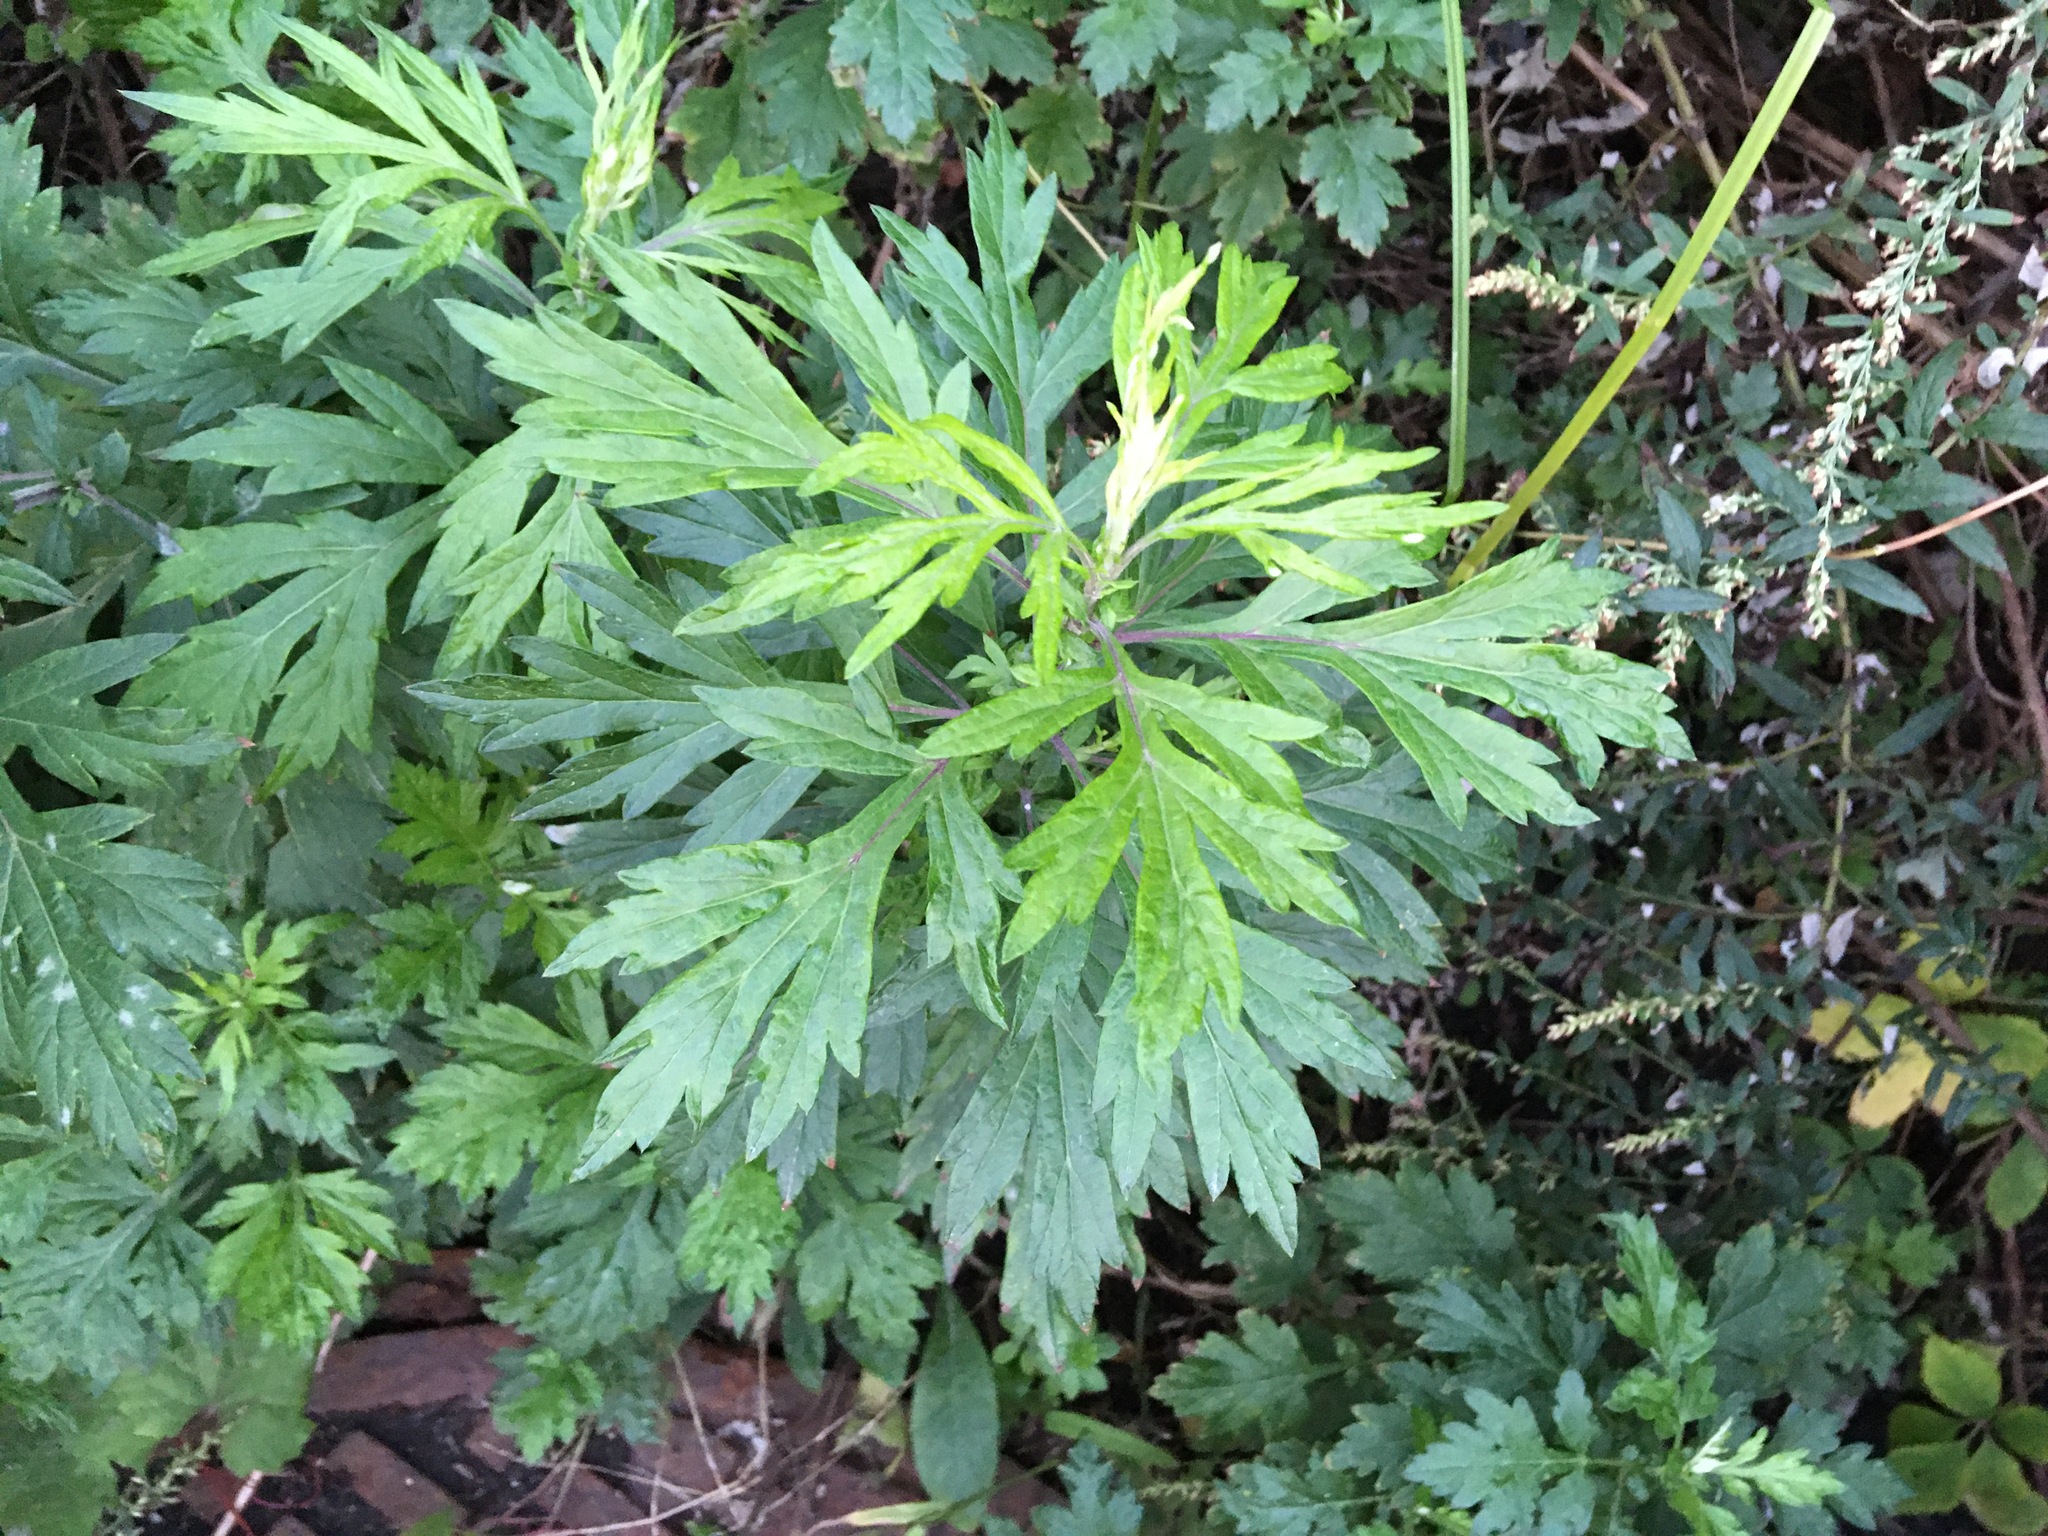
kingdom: Plantae
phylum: Tracheophyta
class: Magnoliopsida
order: Asterales
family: Asteraceae
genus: Artemisia
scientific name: Artemisia vulgaris
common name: Mugwort
